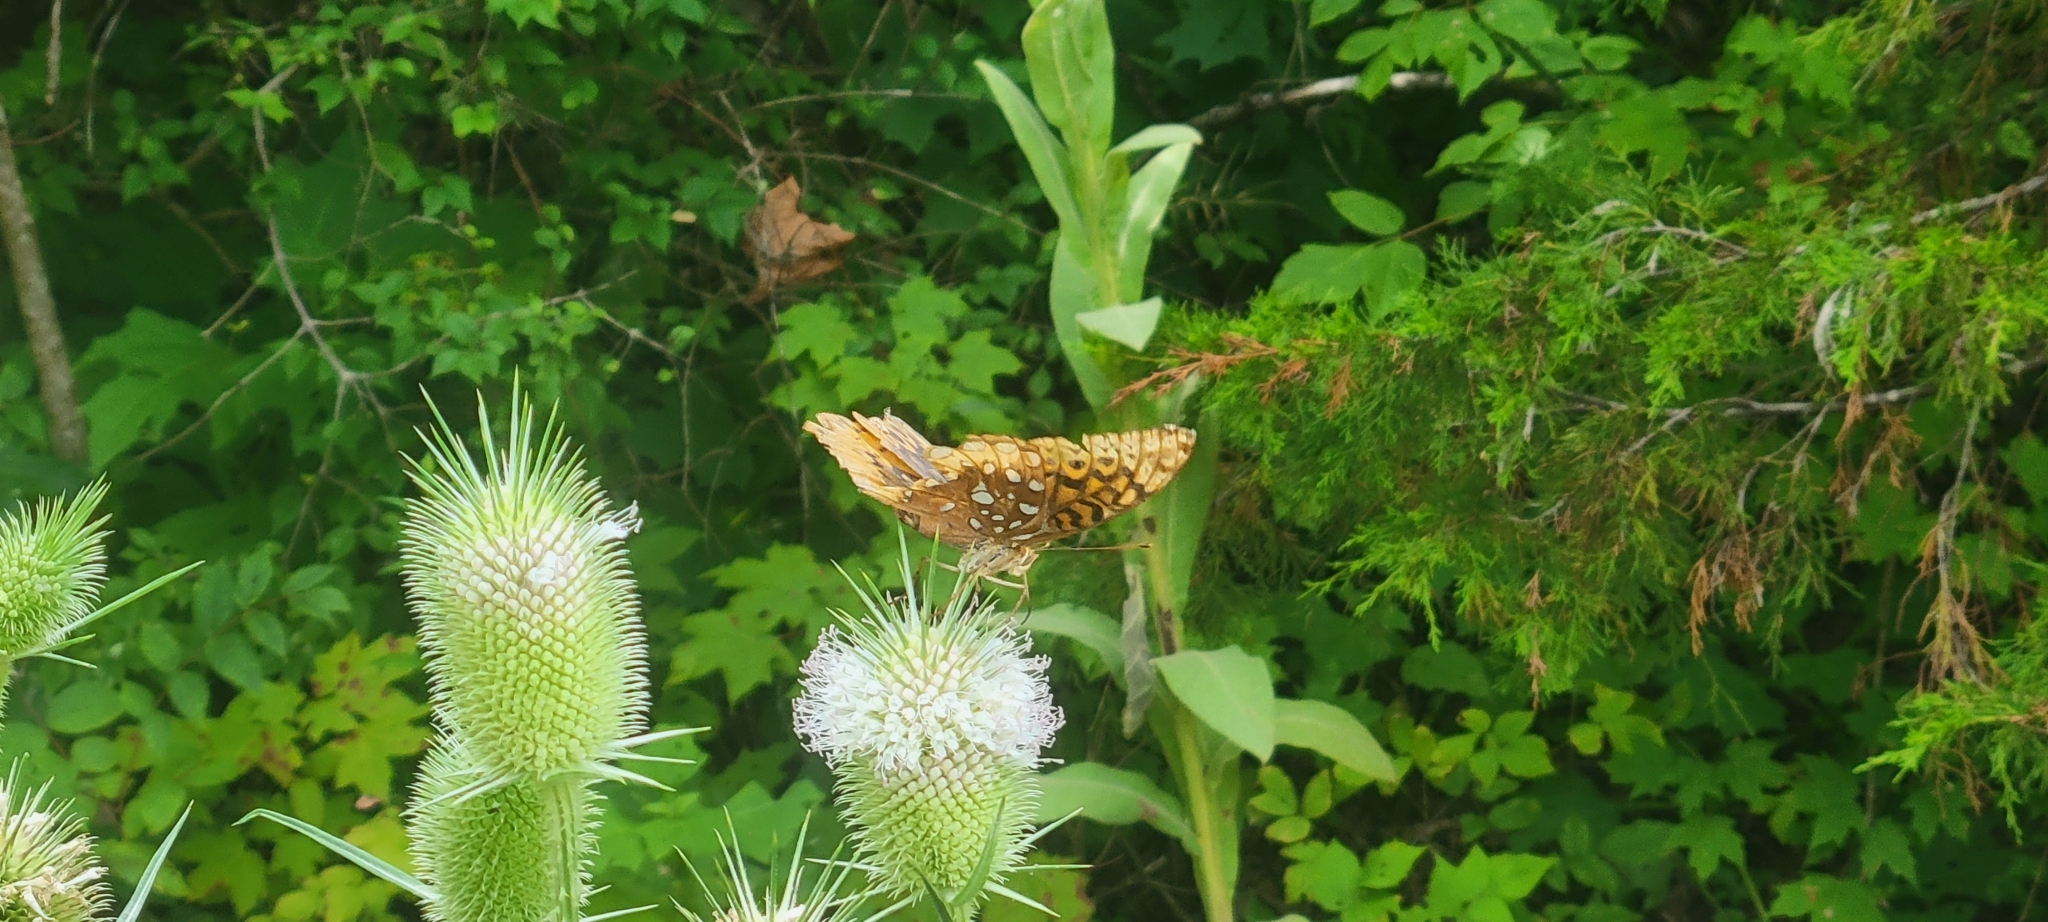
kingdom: Animalia
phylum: Arthropoda
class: Insecta
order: Lepidoptera
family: Nymphalidae
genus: Speyeria
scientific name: Speyeria cybele
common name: Great spangled fritillary
